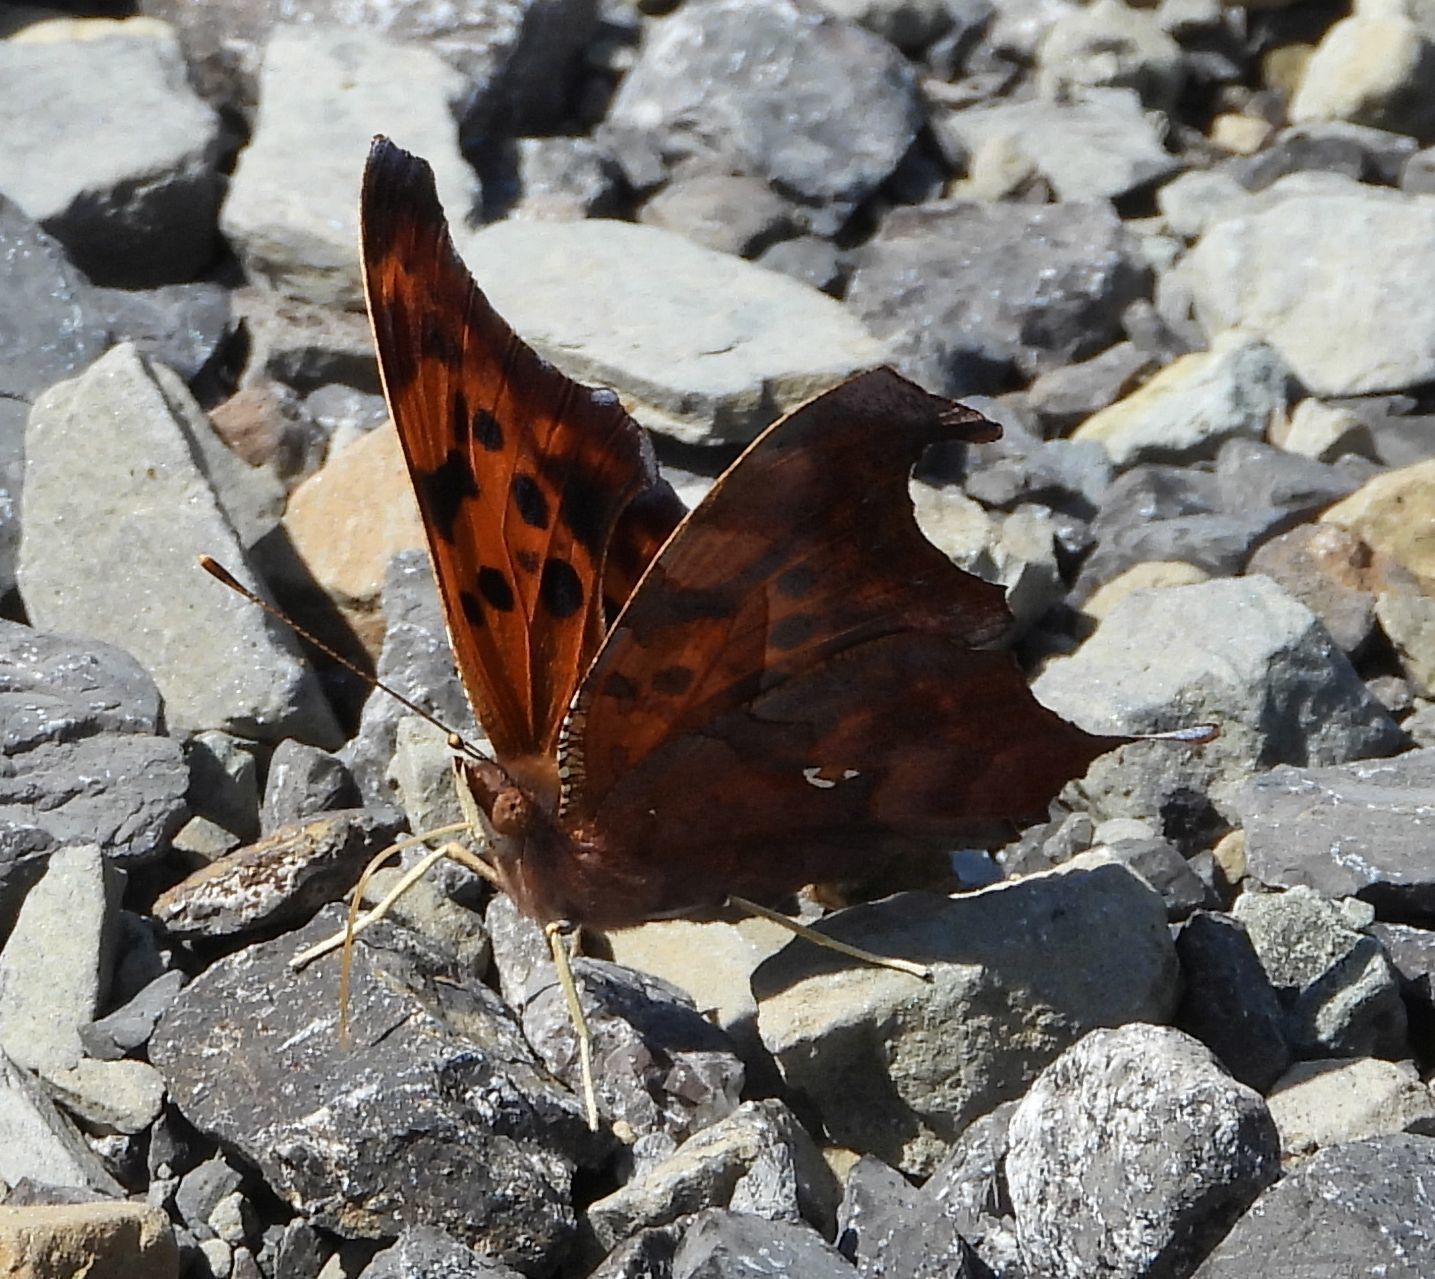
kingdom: Animalia
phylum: Arthropoda
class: Insecta
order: Lepidoptera
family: Nymphalidae
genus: Polygonia
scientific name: Polygonia interrogationis
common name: Question mark
